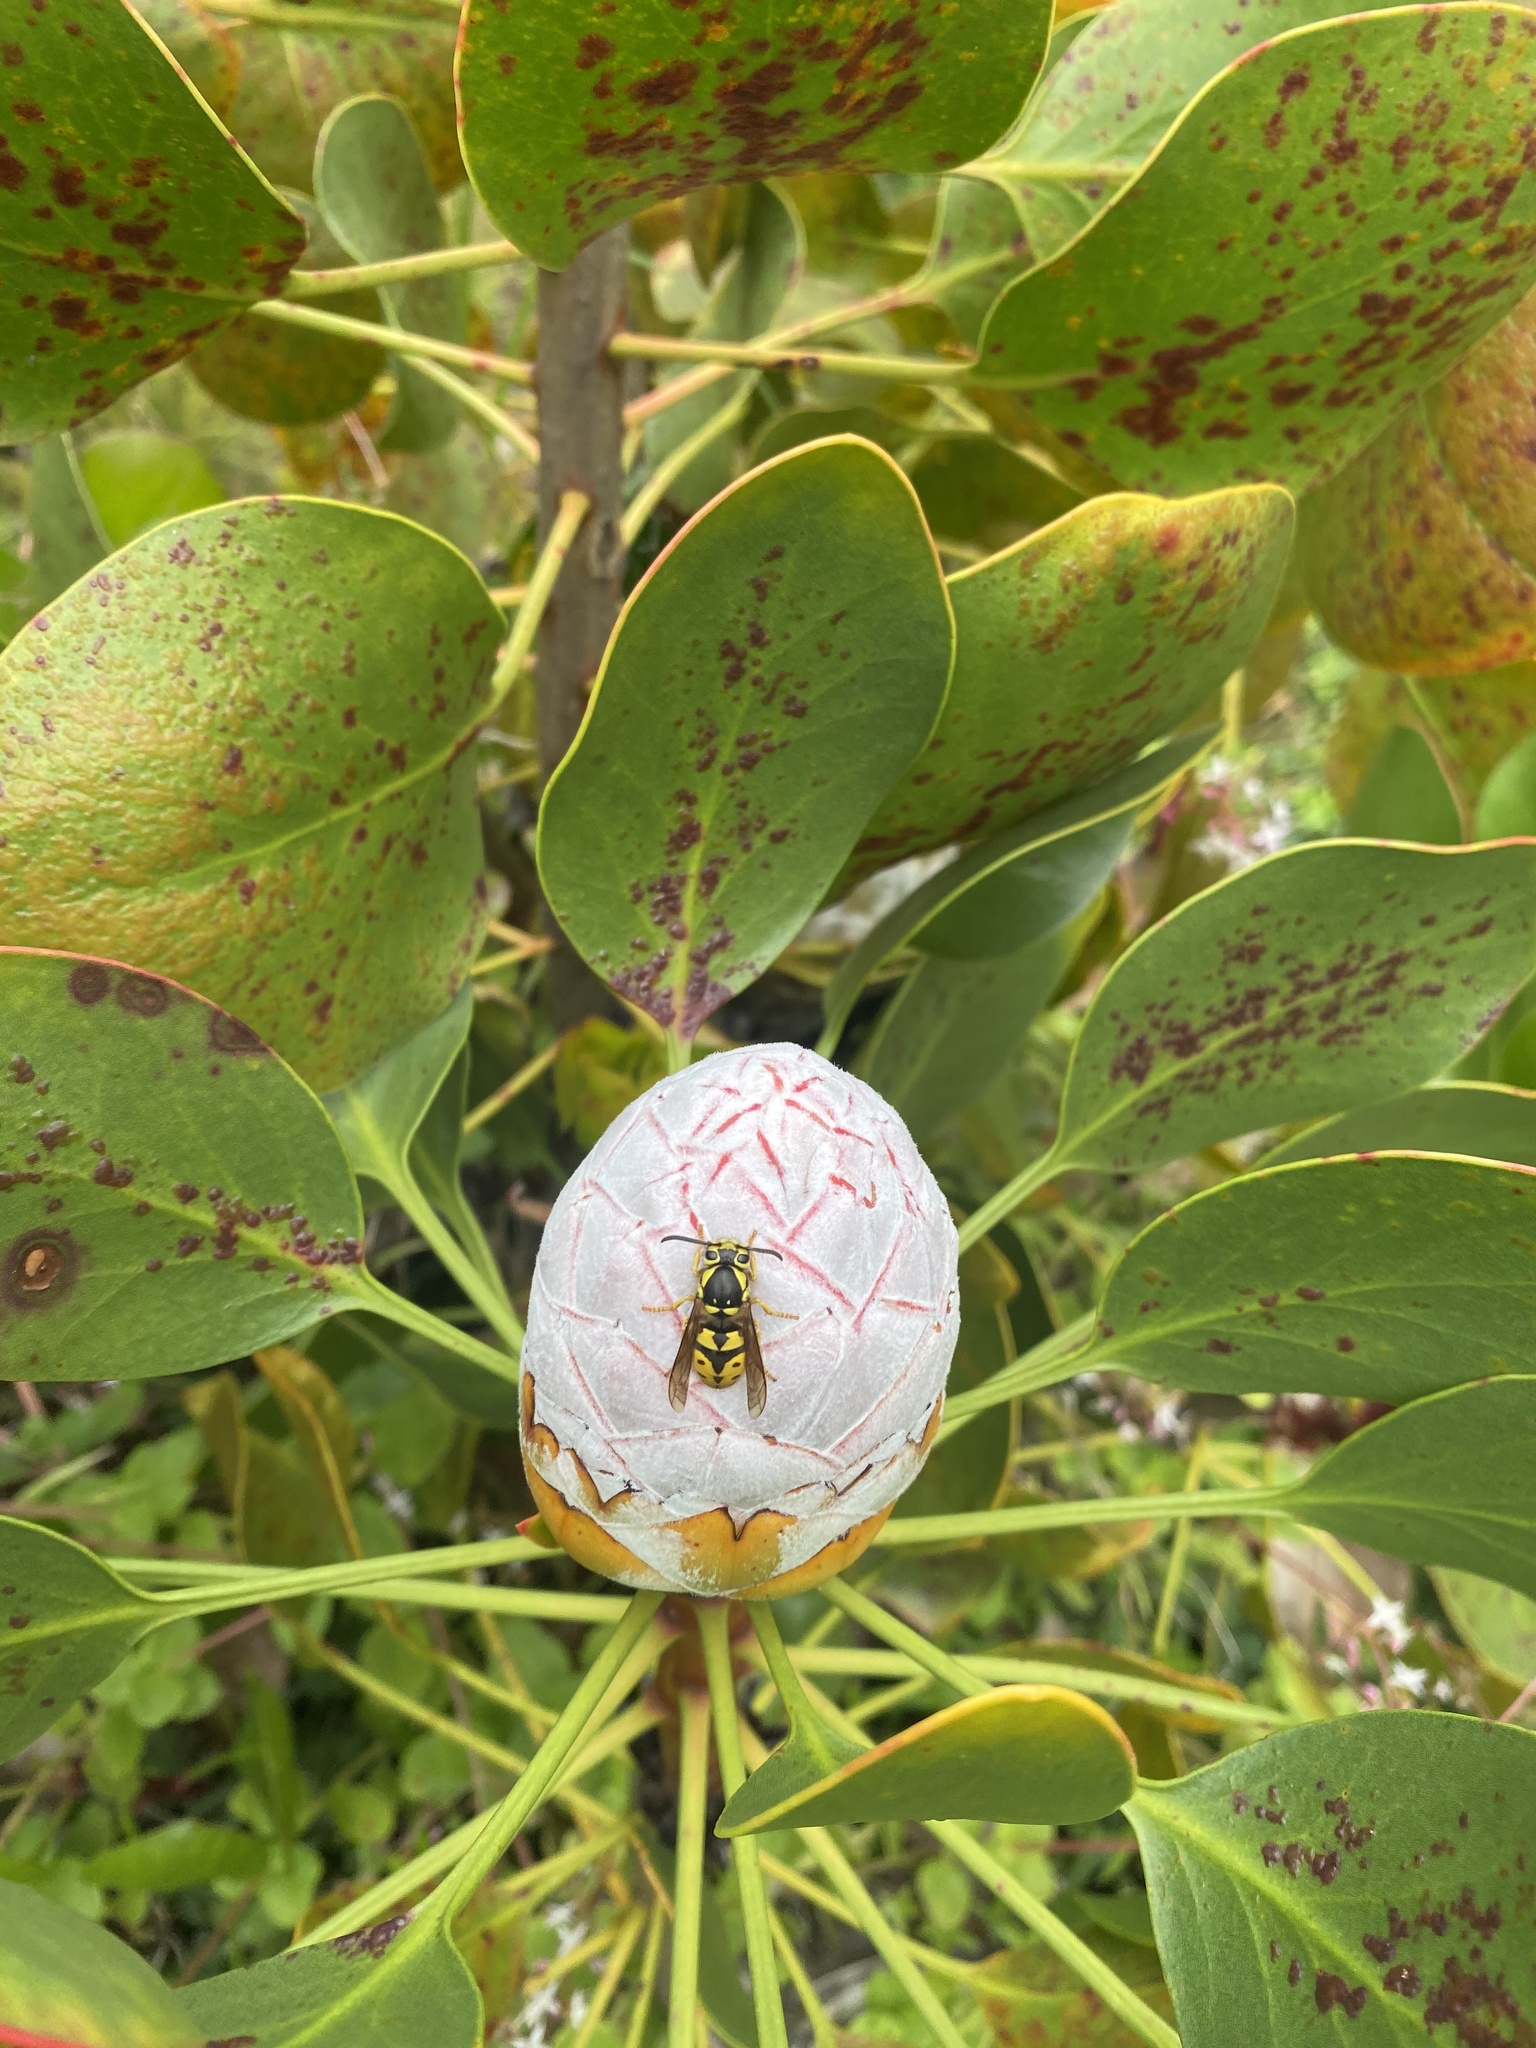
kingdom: Animalia
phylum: Arthropoda
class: Insecta
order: Hymenoptera
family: Vespidae
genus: Vespula
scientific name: Vespula pensylvanica
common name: Western yellowjacket
